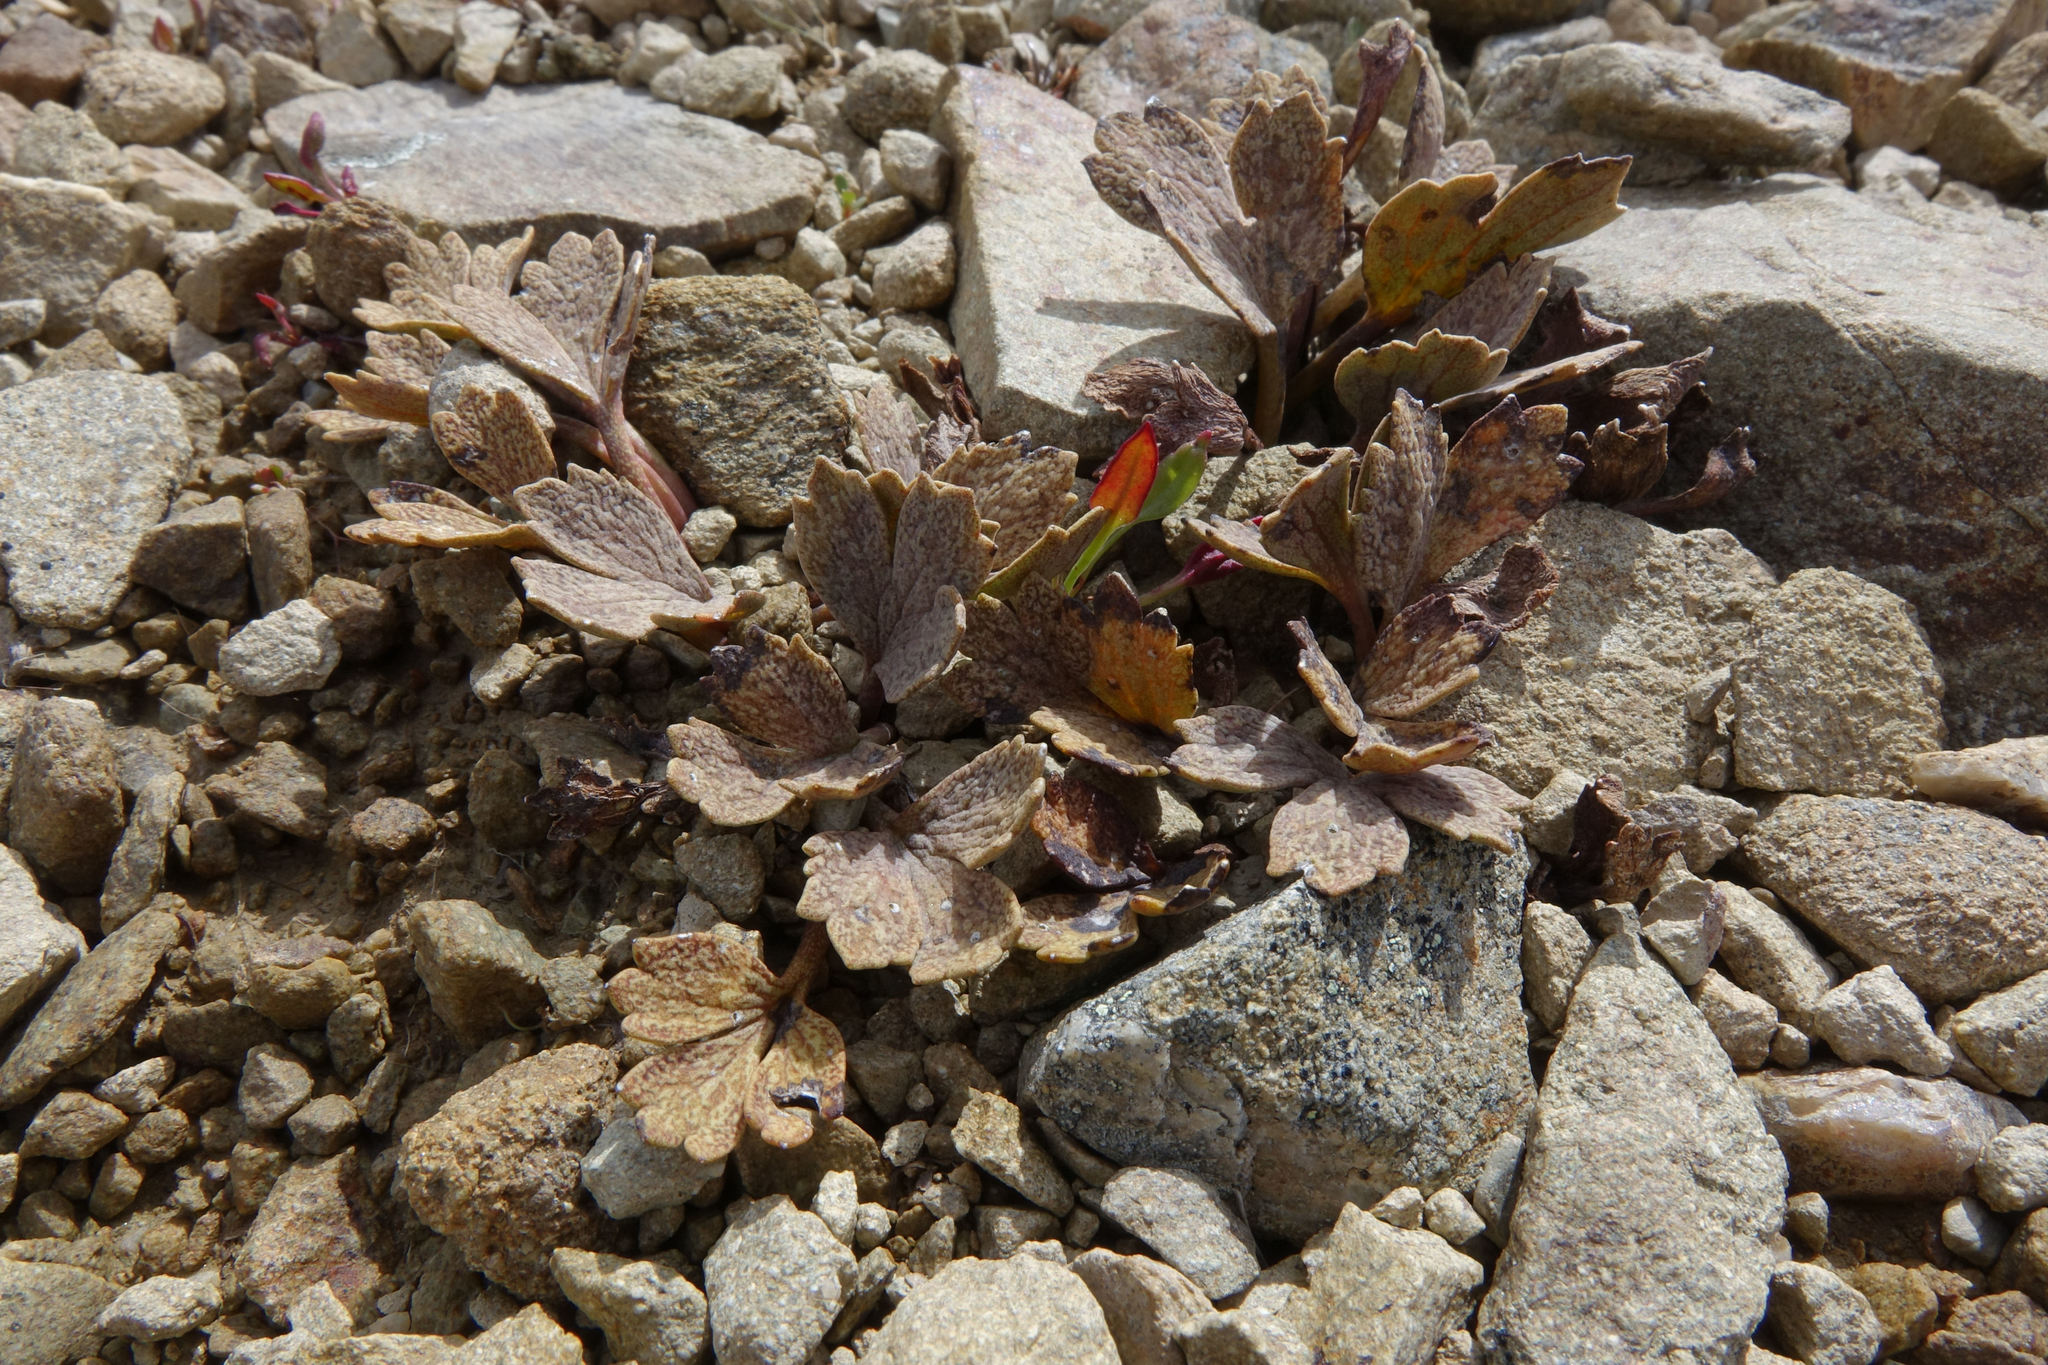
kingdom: Plantae
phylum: Tracheophyta
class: Magnoliopsida
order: Ranunculales
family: Ranunculaceae
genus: Ranunculus
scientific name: Ranunculus crithmifolius
